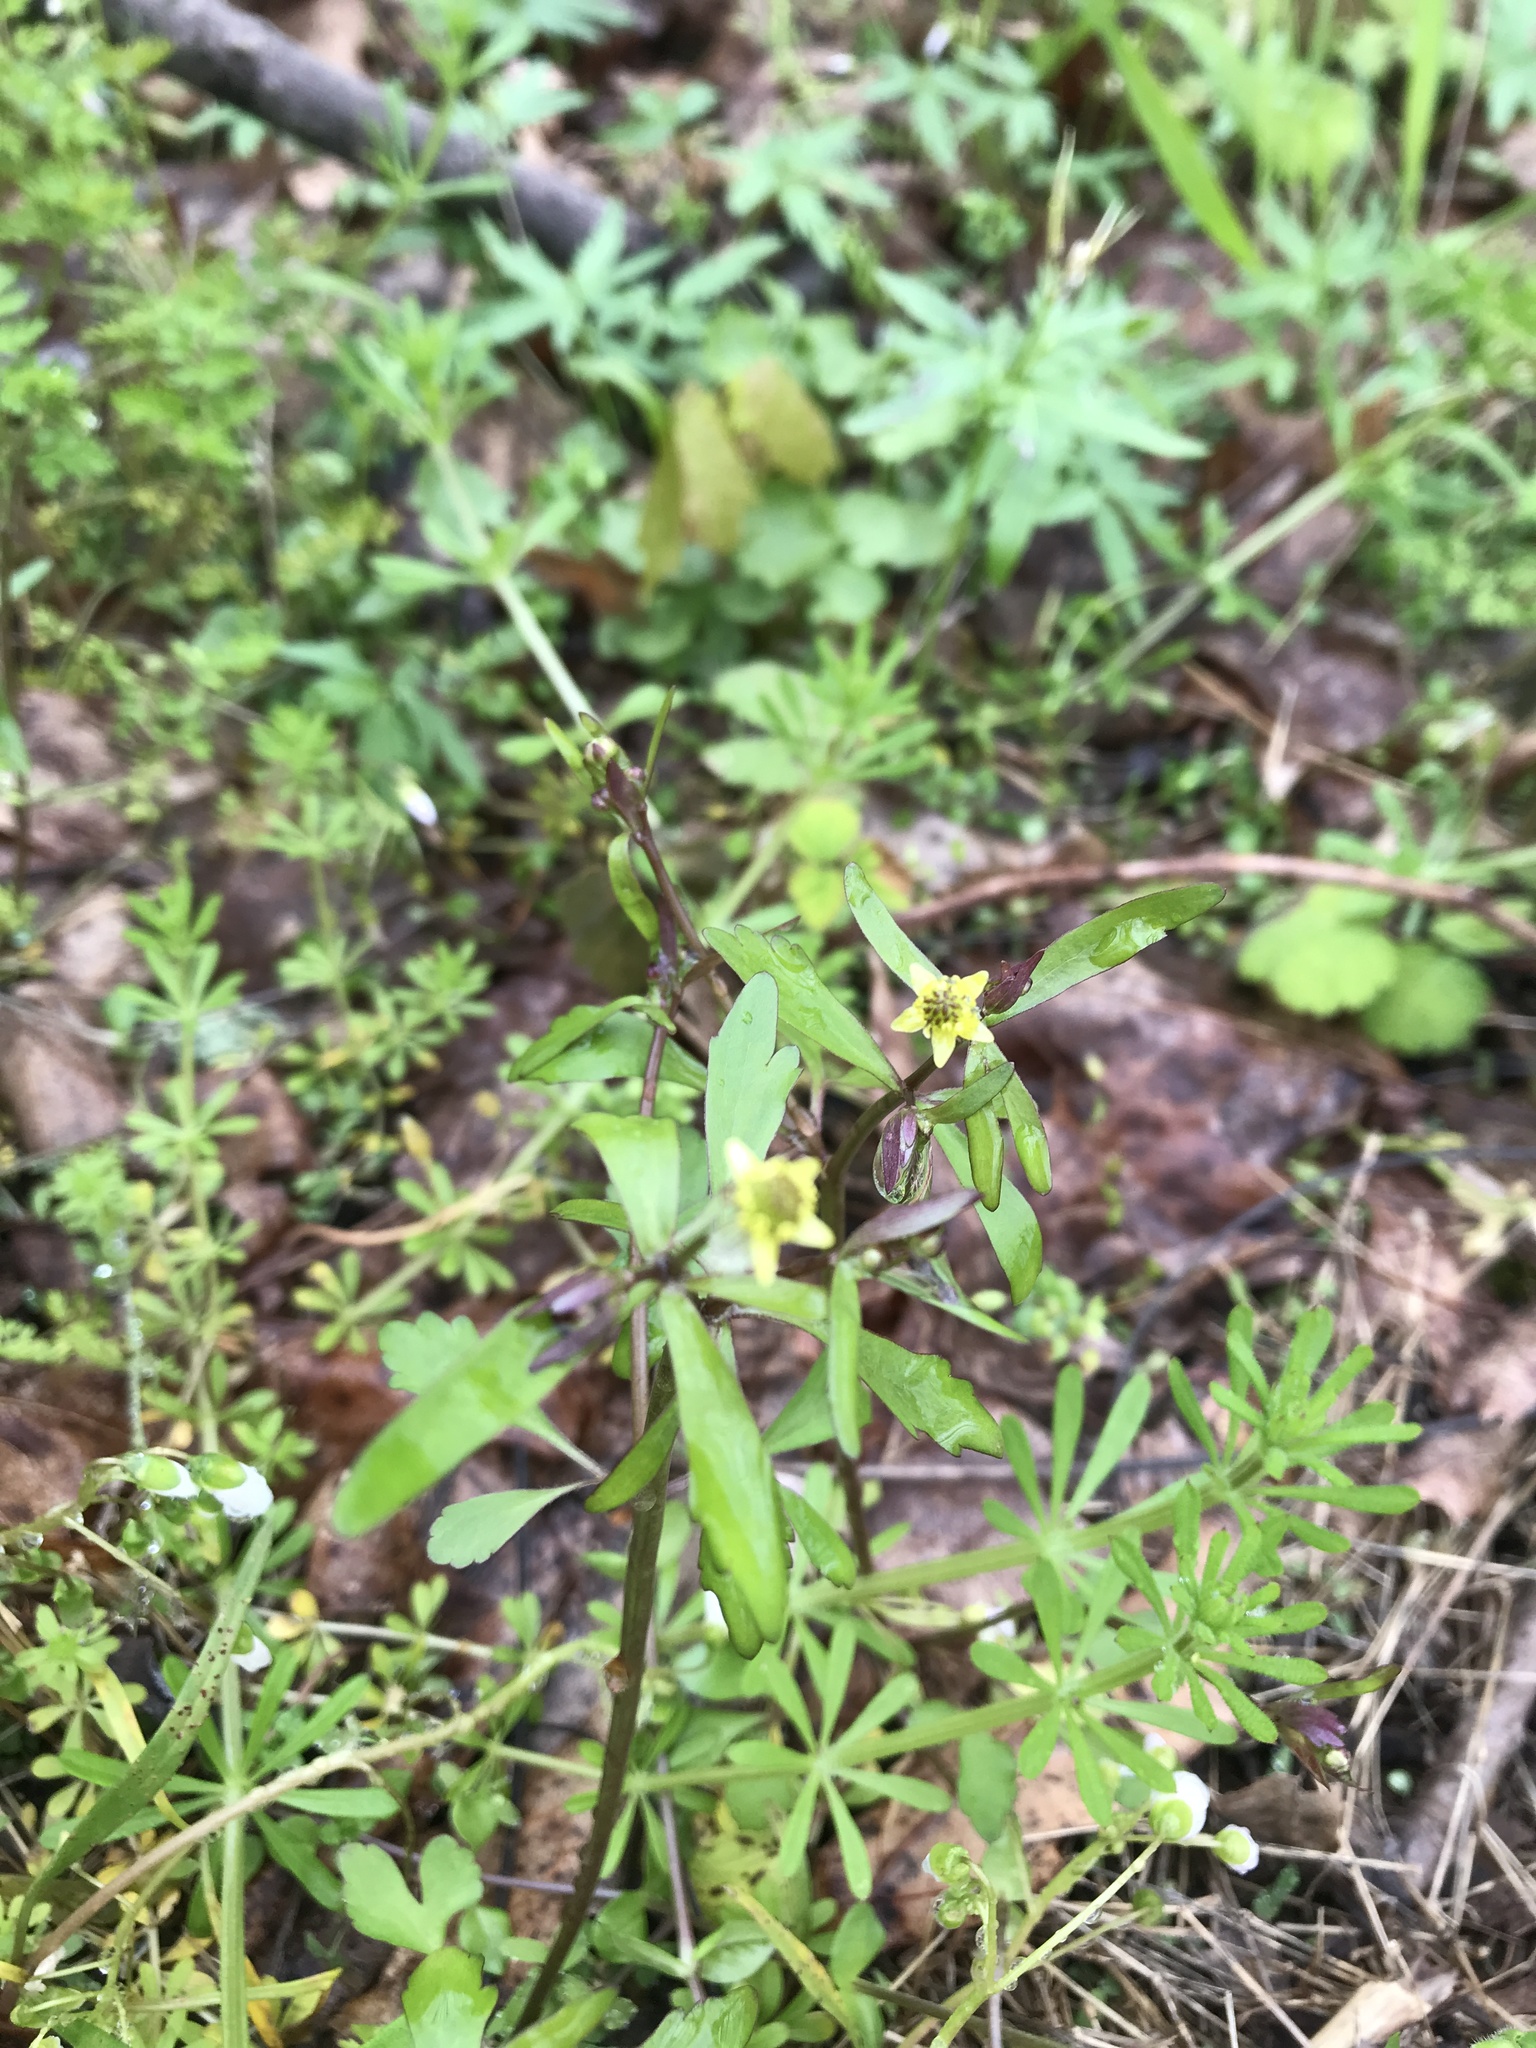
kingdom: Plantae
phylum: Tracheophyta
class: Magnoliopsida
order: Ranunculales
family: Ranunculaceae
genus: Ranunculus
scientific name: Ranunculus abortivus
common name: Early wood buttercup
